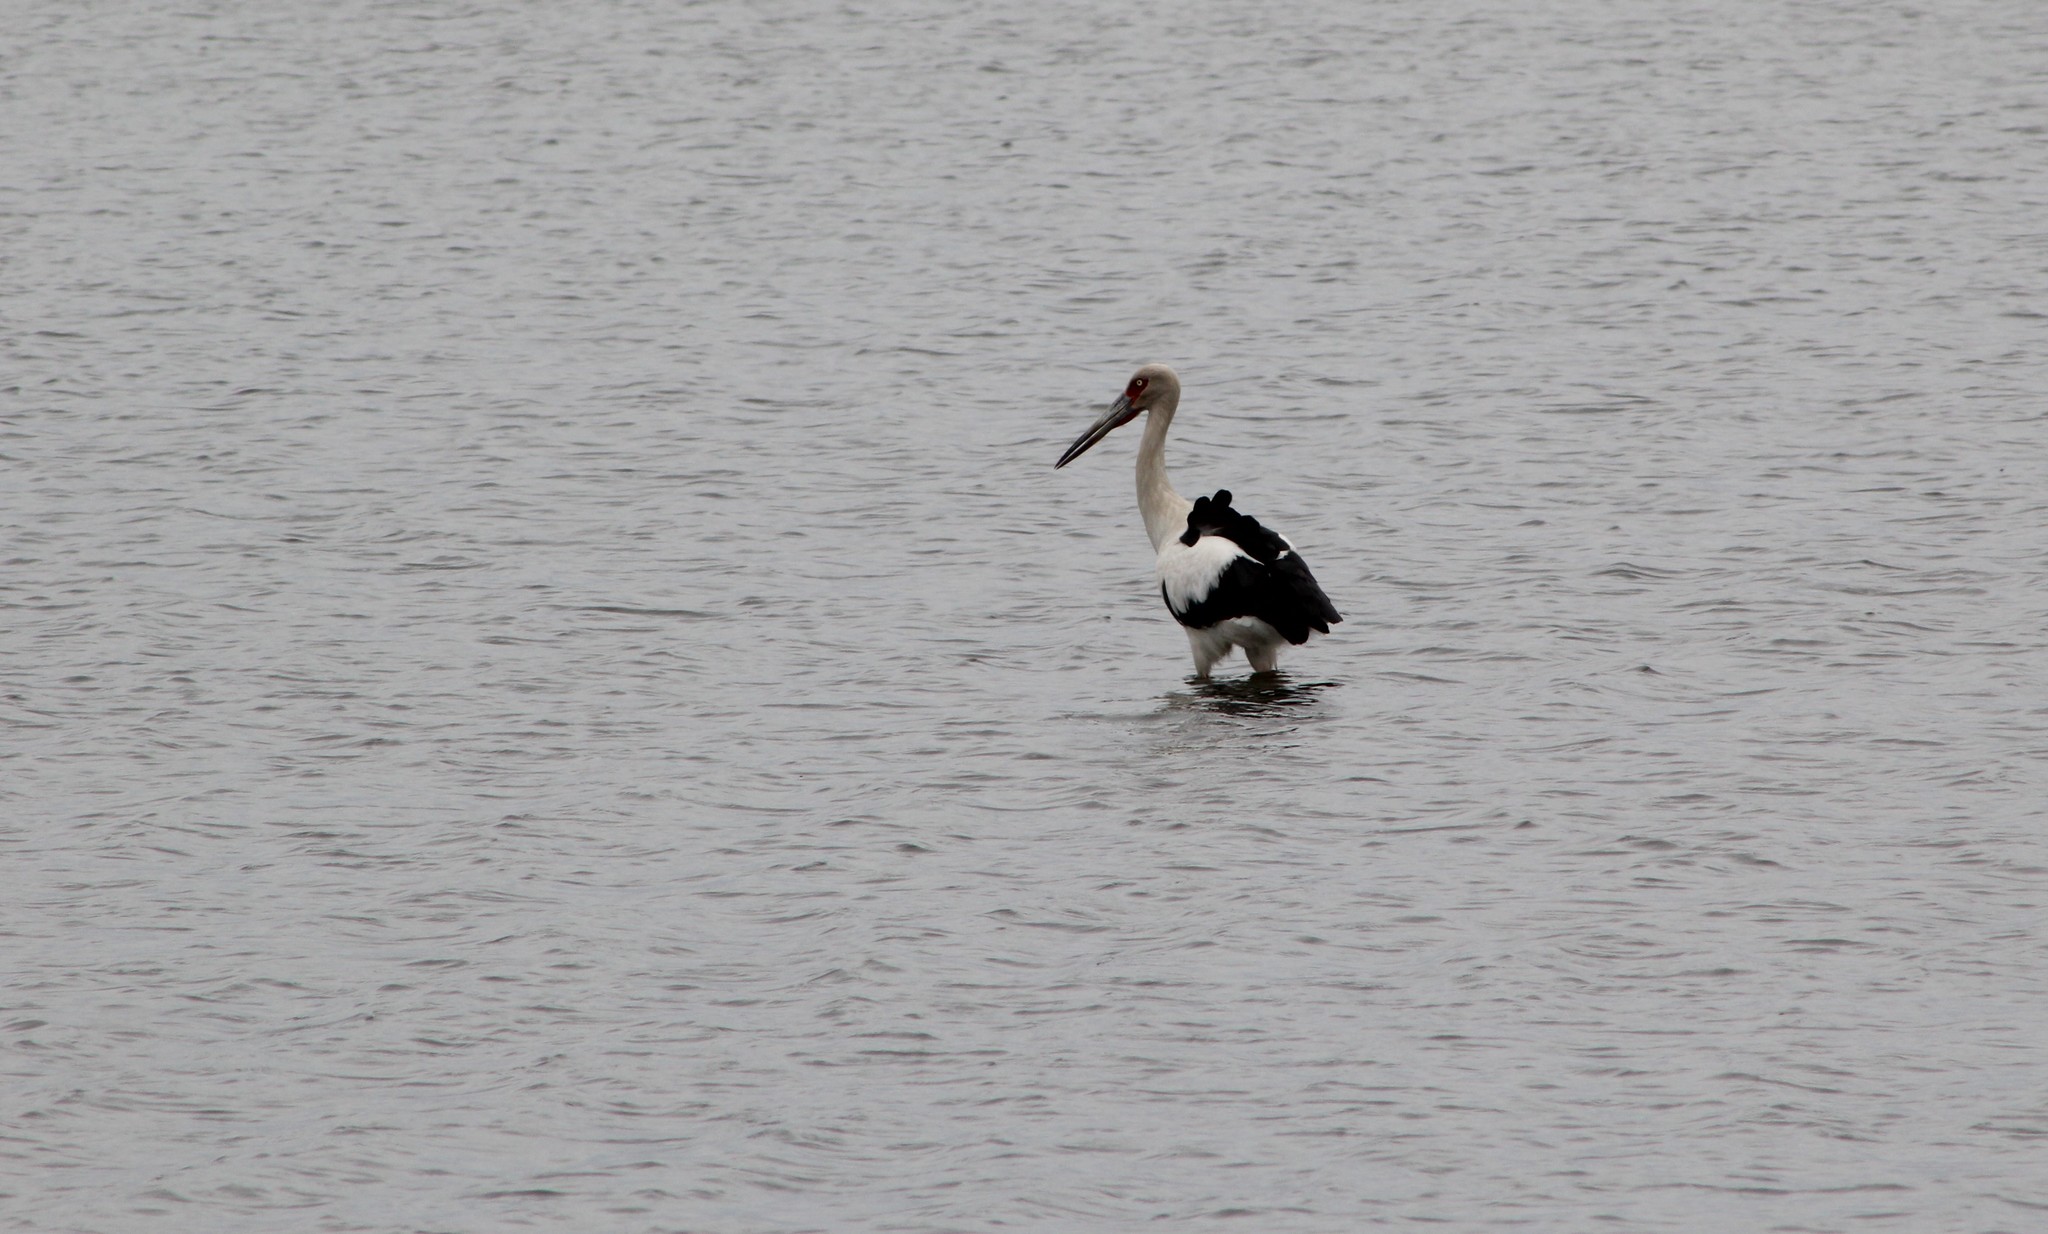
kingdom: Animalia
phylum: Chordata
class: Aves
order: Ciconiiformes
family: Ciconiidae
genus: Ciconia
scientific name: Ciconia maguari
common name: Maguari stork
